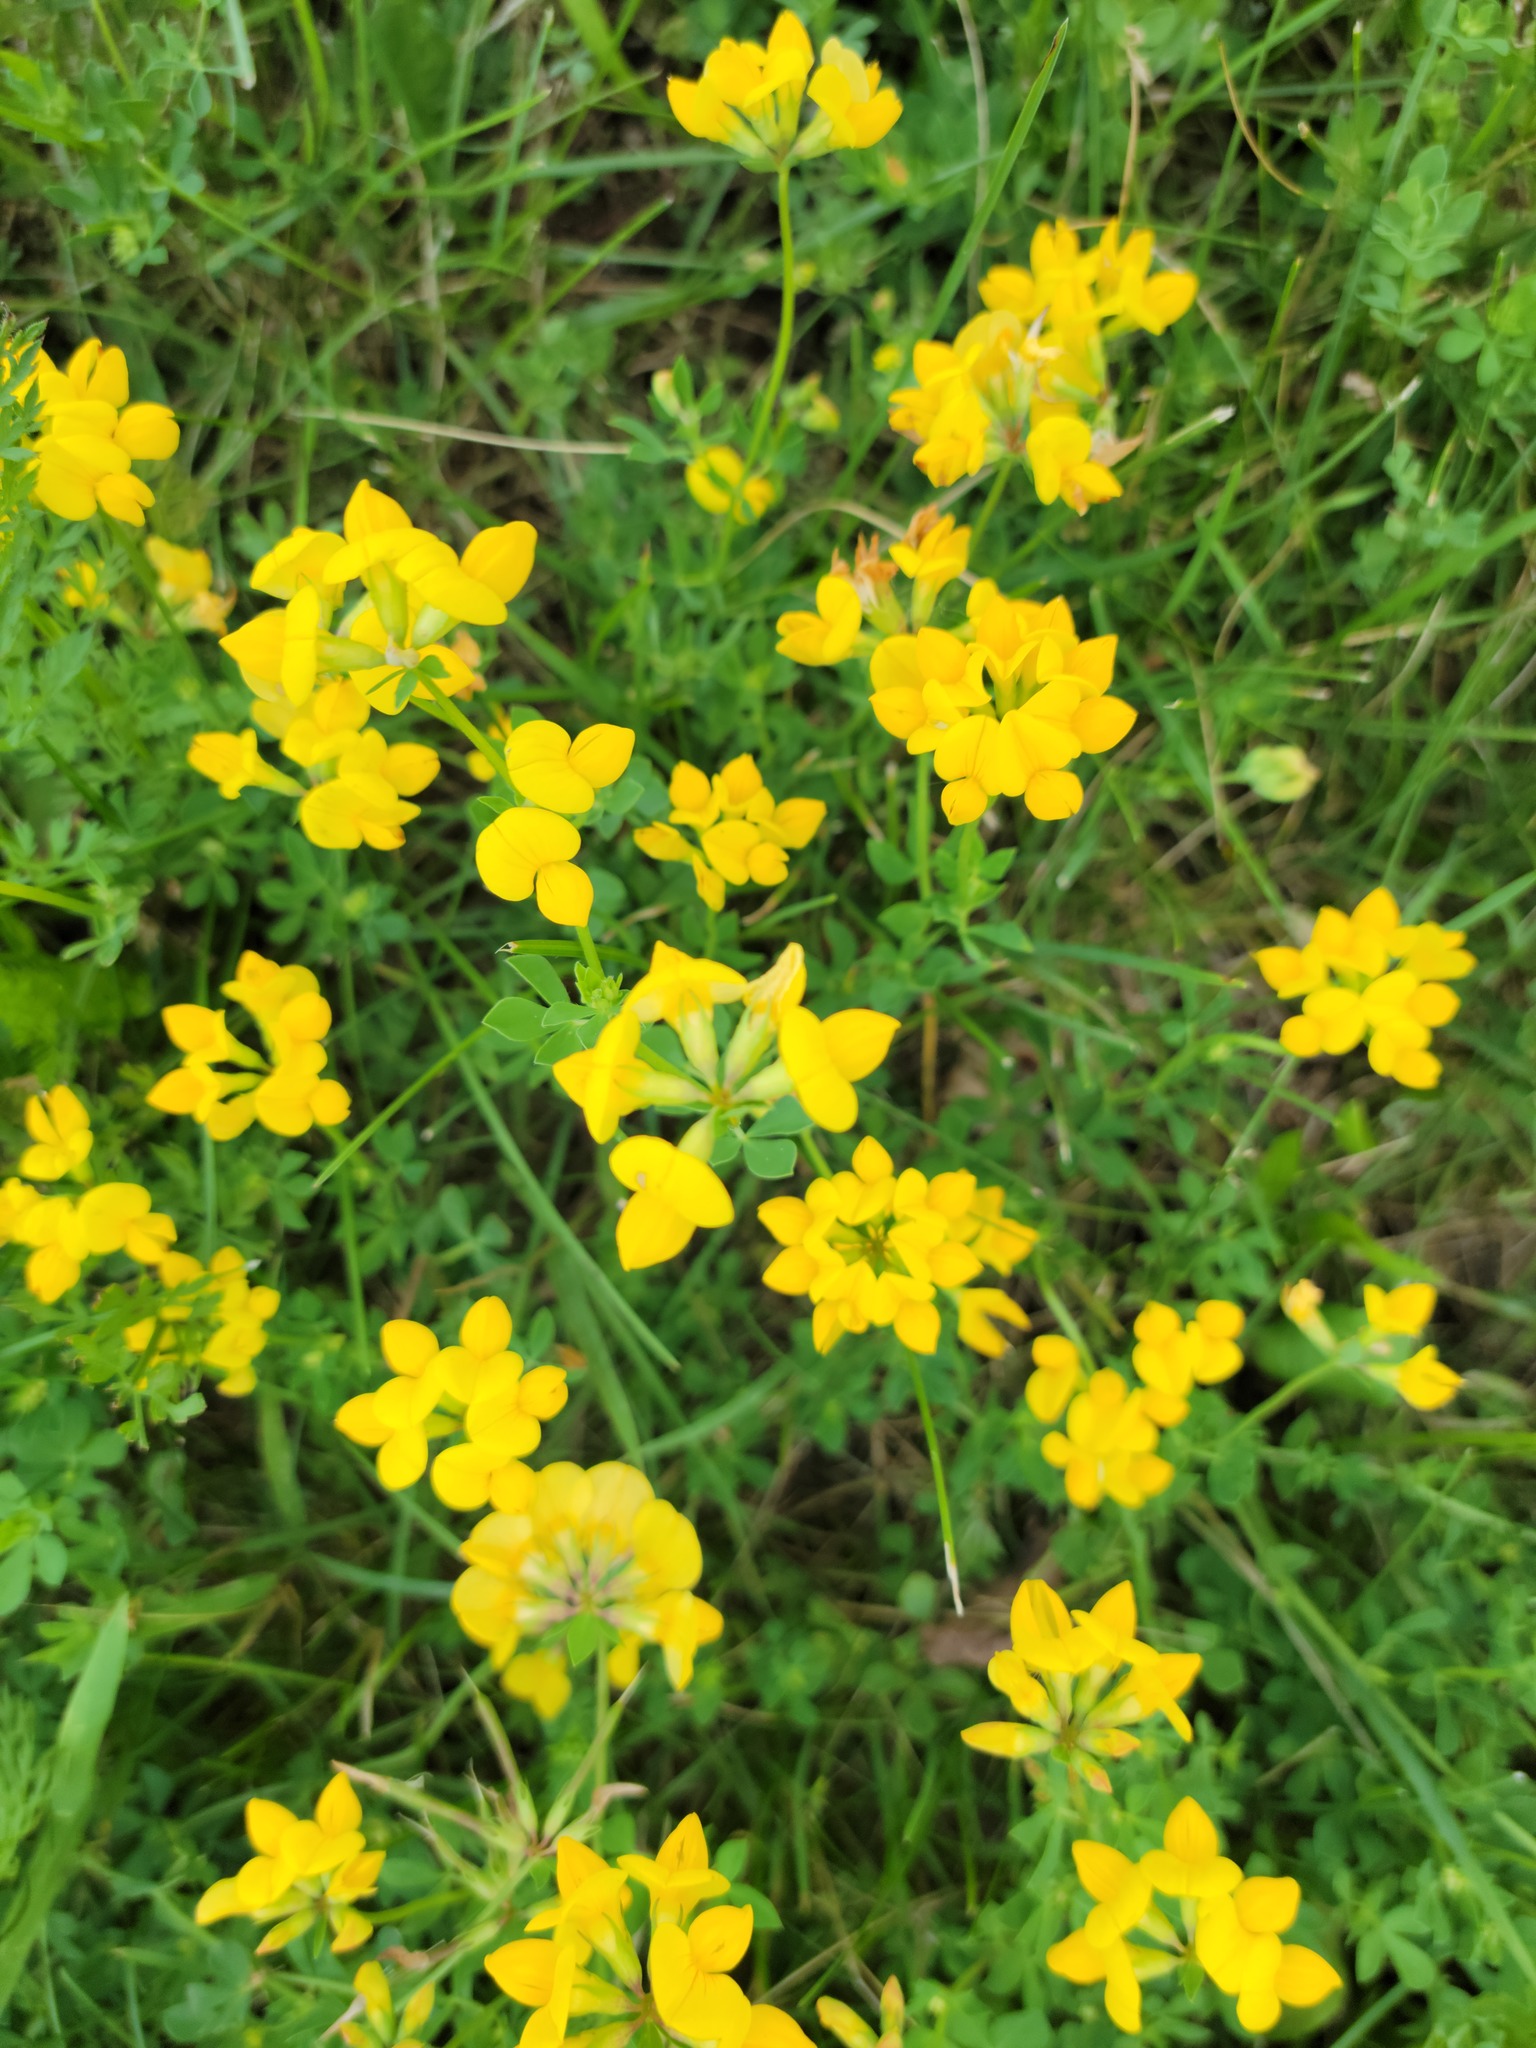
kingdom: Plantae
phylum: Tracheophyta
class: Magnoliopsida
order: Fabales
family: Fabaceae
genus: Lotus
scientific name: Lotus corniculatus
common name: Common bird's-foot-trefoil
